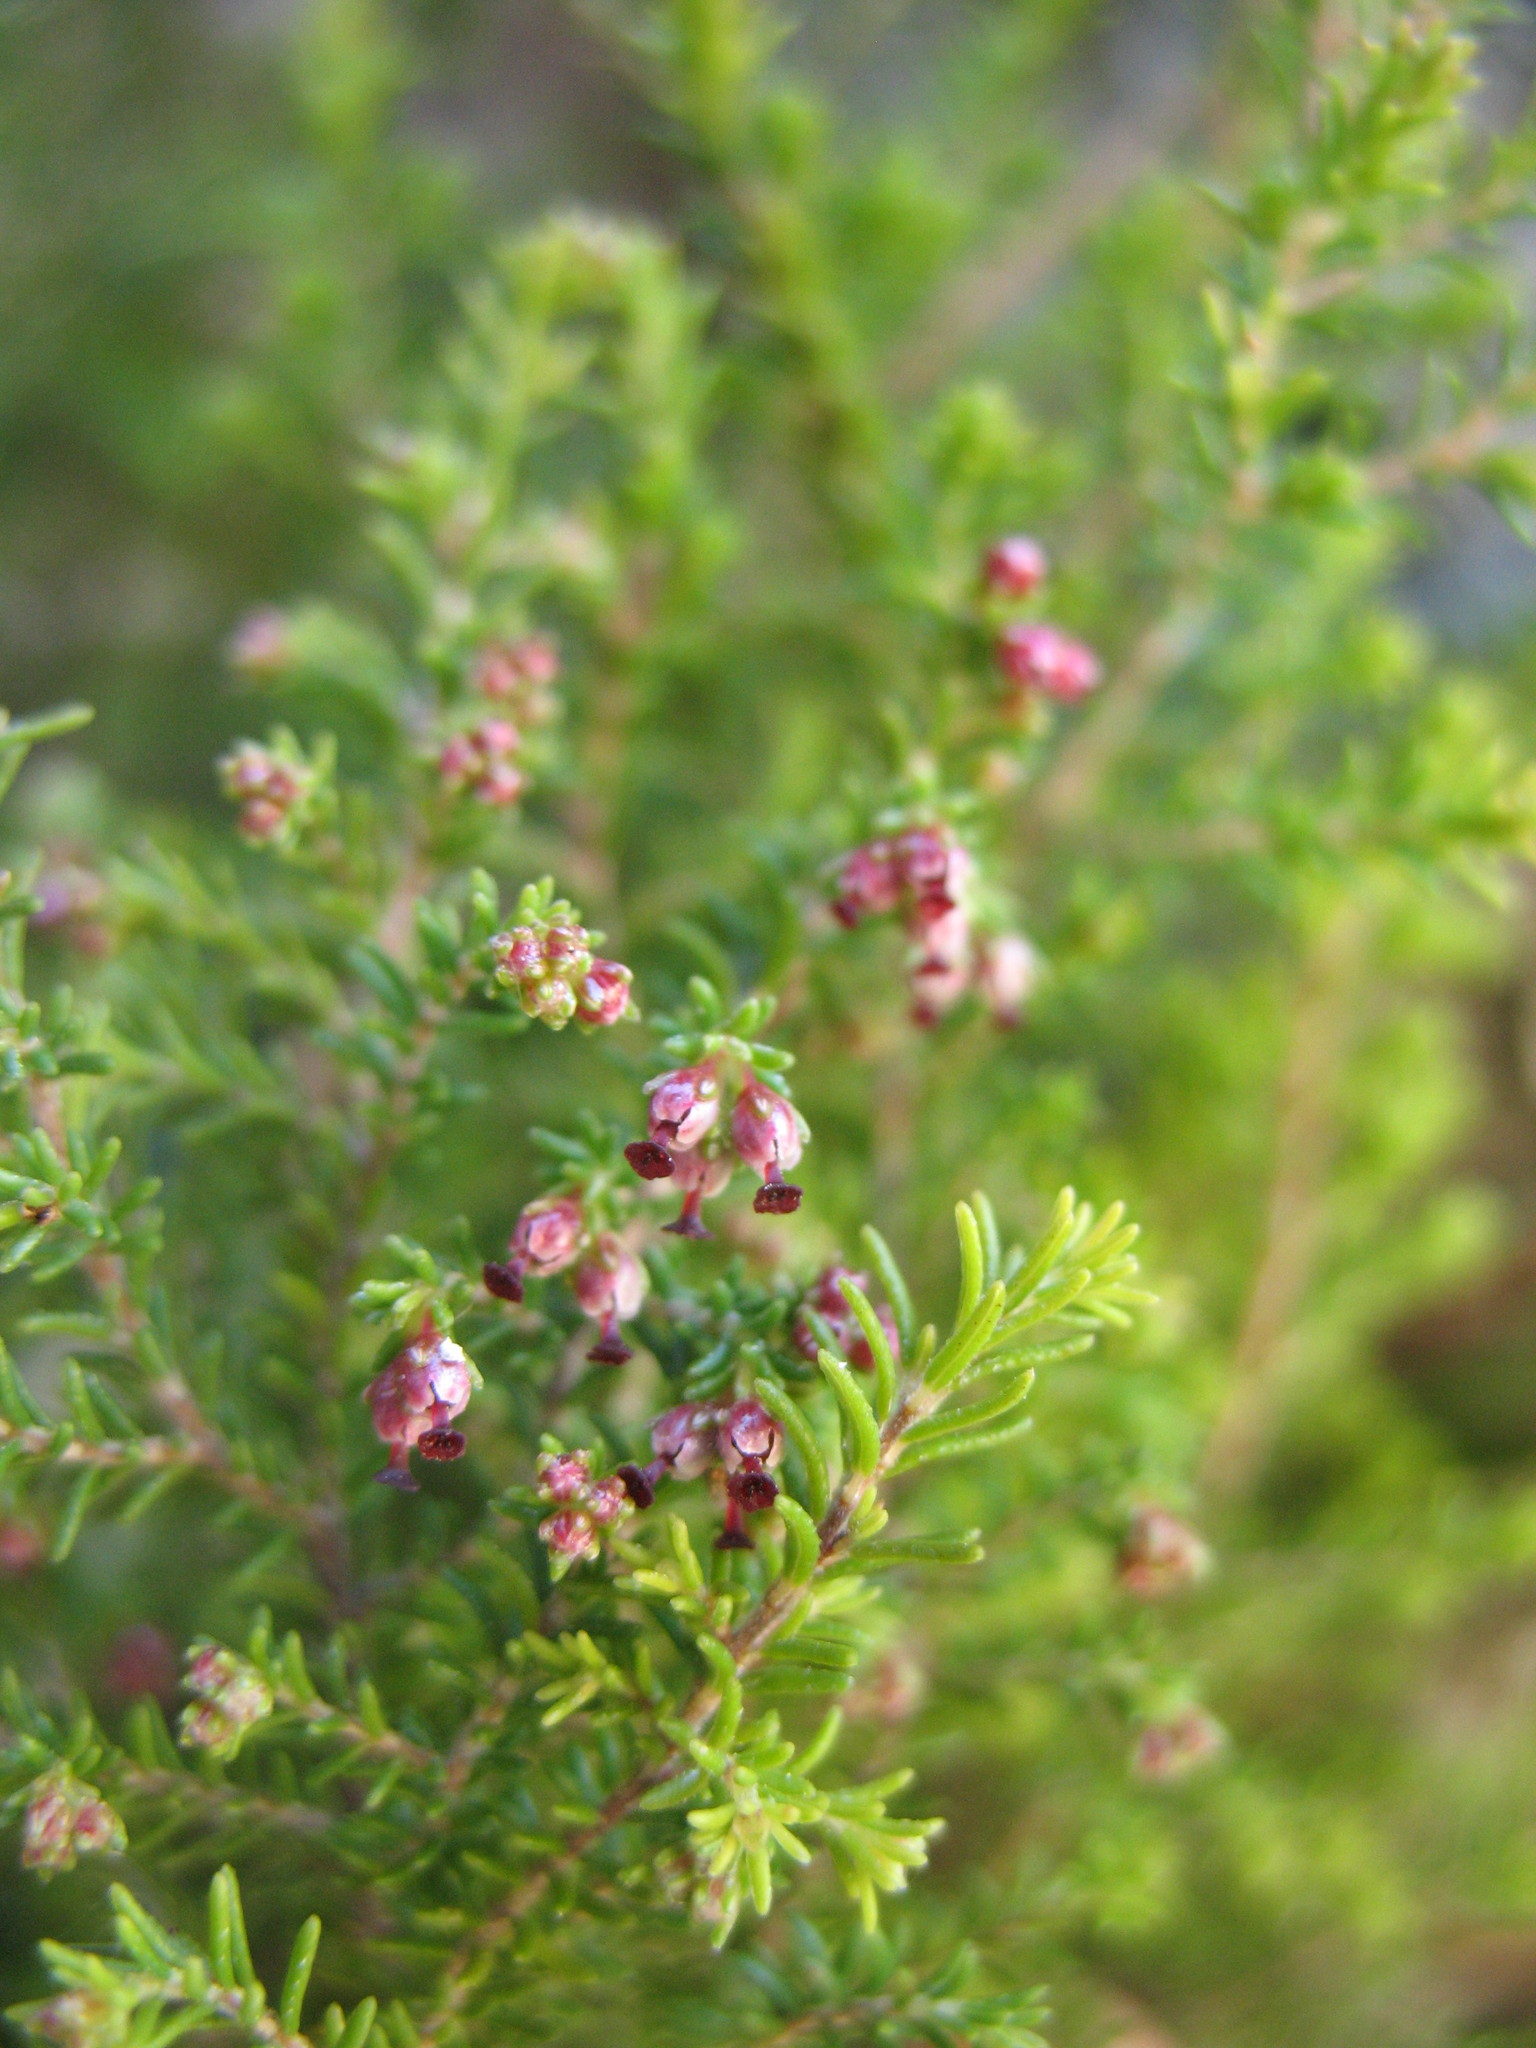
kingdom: Plantae
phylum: Tracheophyta
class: Magnoliopsida
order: Ericales
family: Ericaceae
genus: Erica
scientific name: Erica petricola
